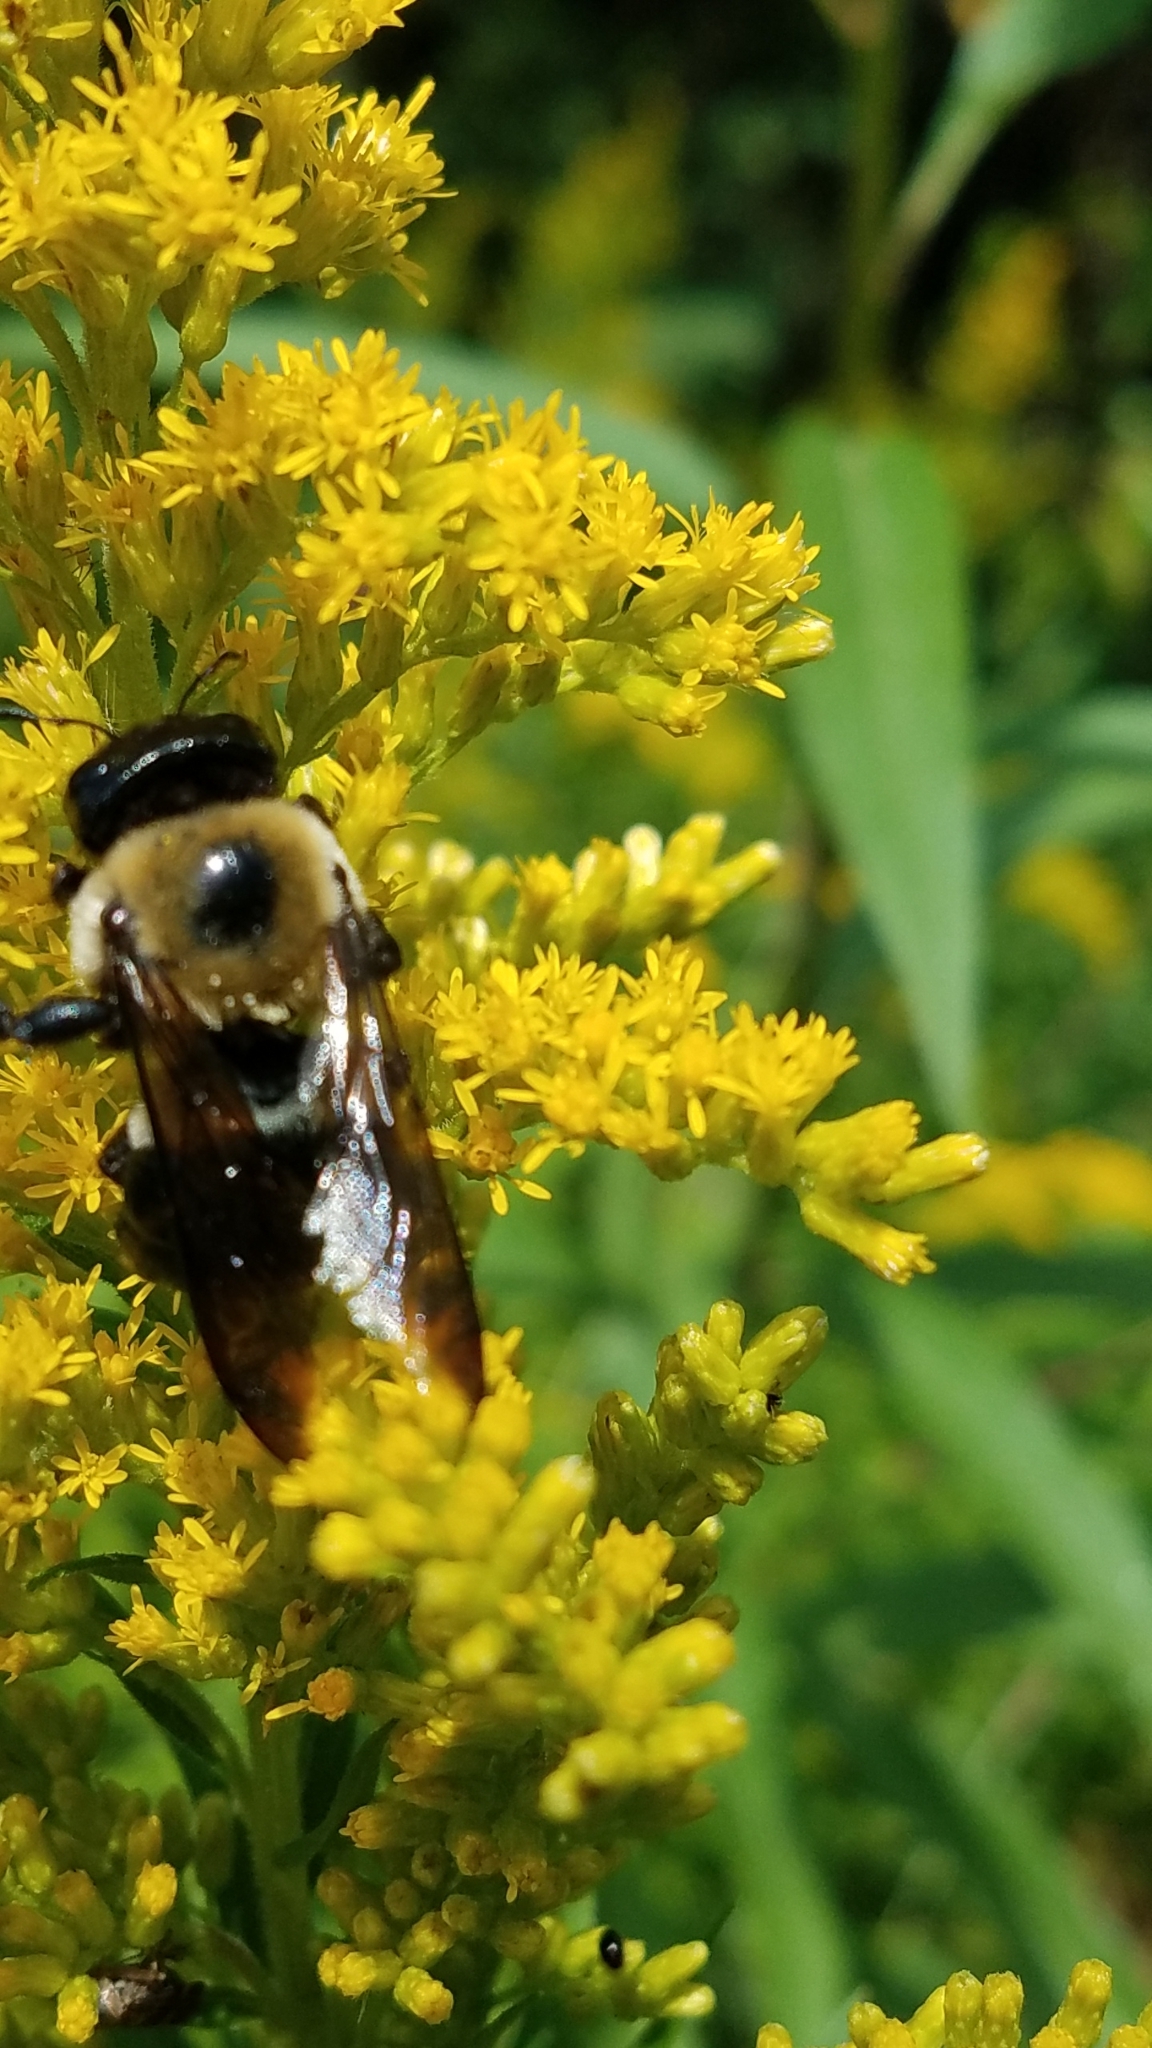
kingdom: Animalia
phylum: Arthropoda
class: Insecta
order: Hymenoptera
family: Apidae
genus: Xylocopa
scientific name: Xylocopa virginica
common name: Carpenter bee
